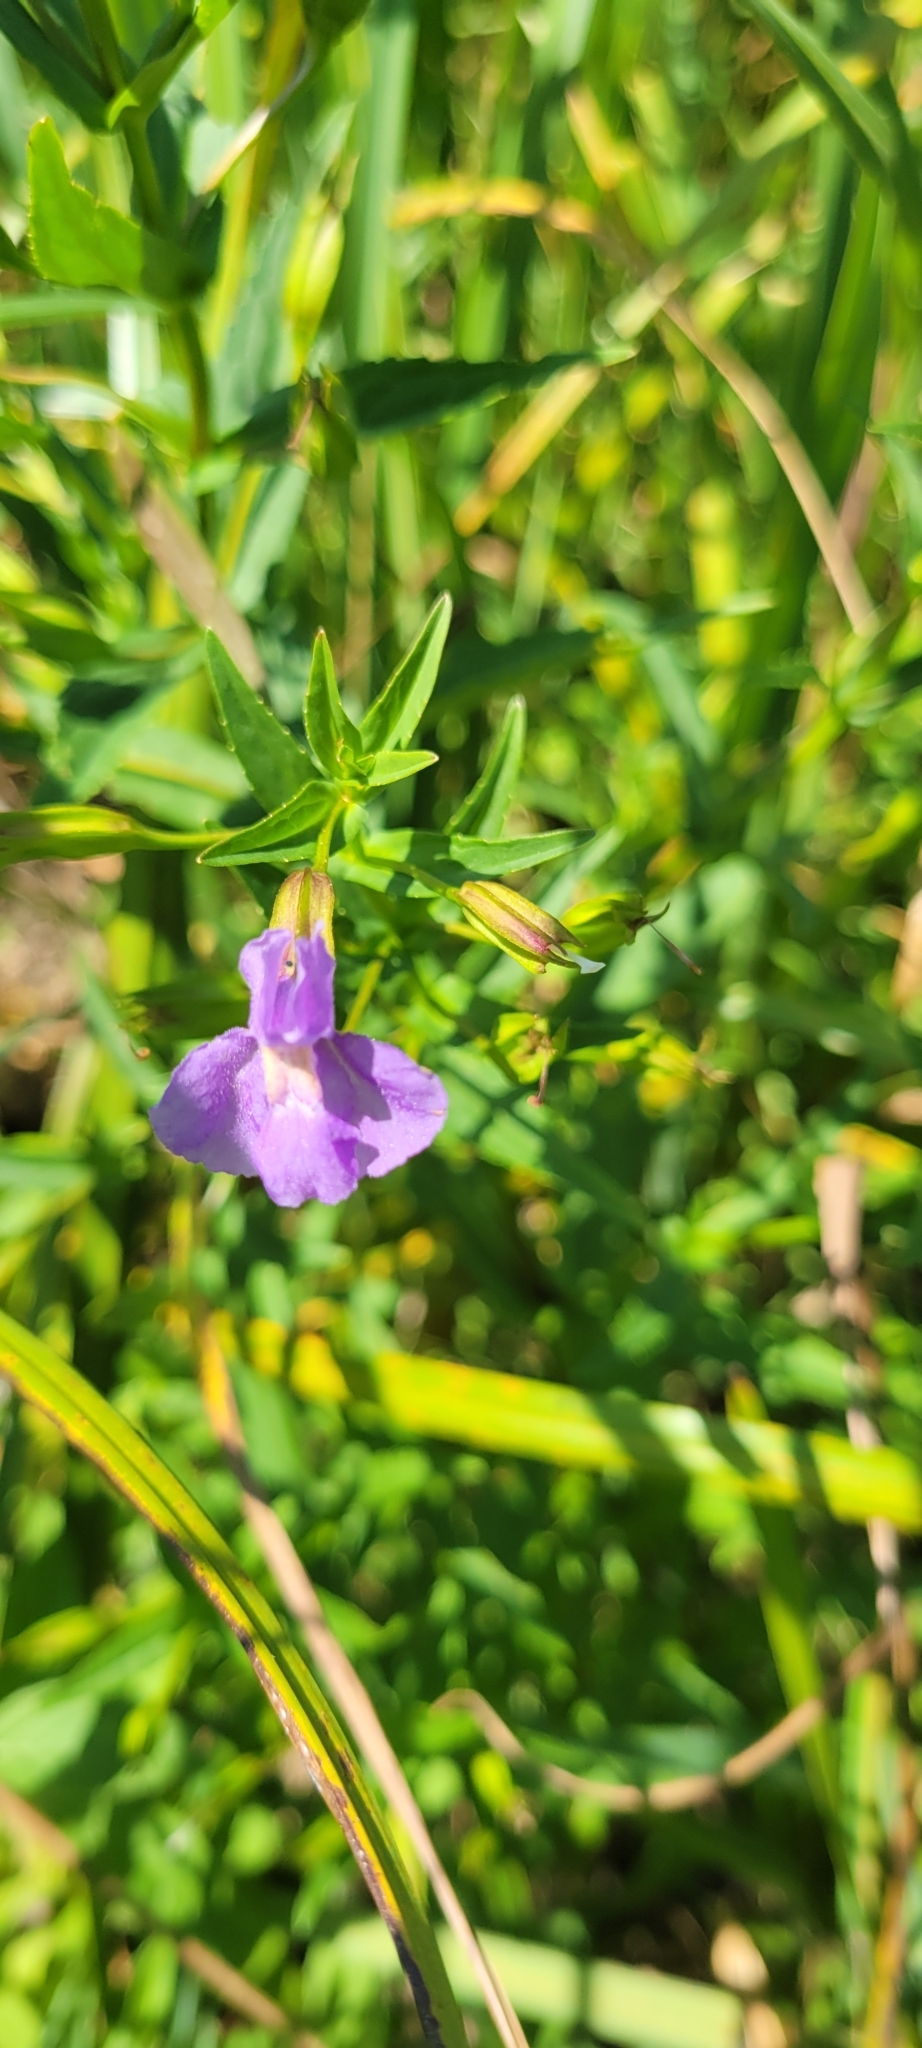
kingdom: Plantae
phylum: Tracheophyta
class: Magnoliopsida
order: Lamiales
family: Phrymaceae
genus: Mimulus
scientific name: Mimulus ringens
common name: Allegheny monkeyflower
